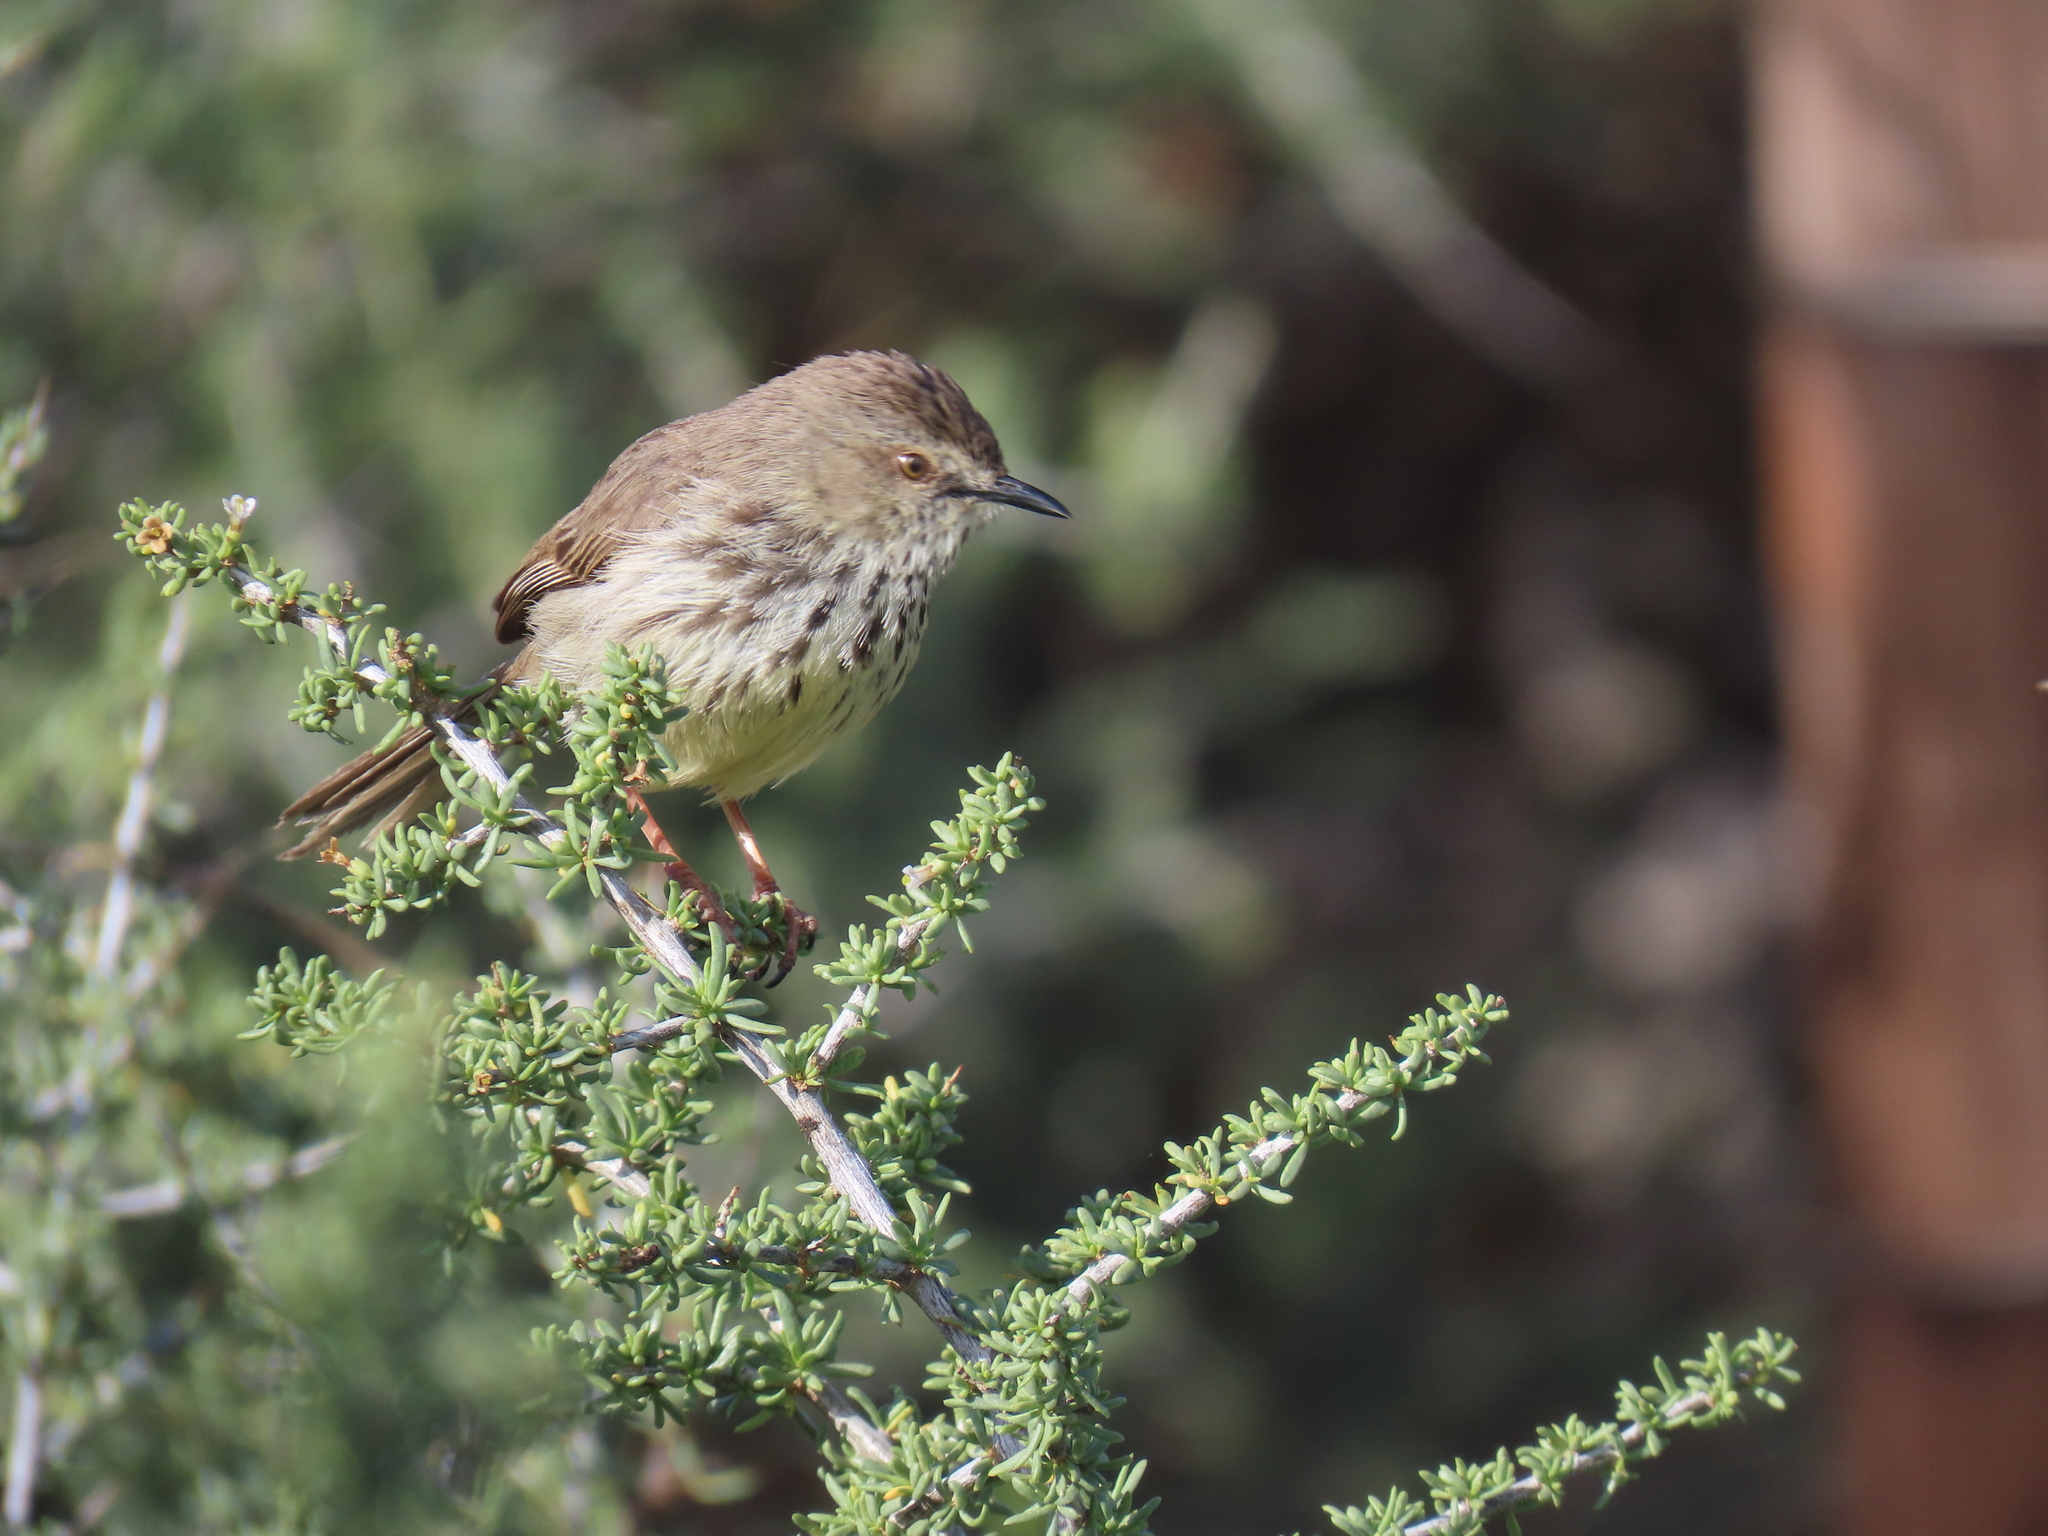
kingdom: Animalia
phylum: Chordata
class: Aves
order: Passeriformes
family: Cisticolidae
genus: Prinia
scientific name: Prinia maculosa
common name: Karoo prinia
